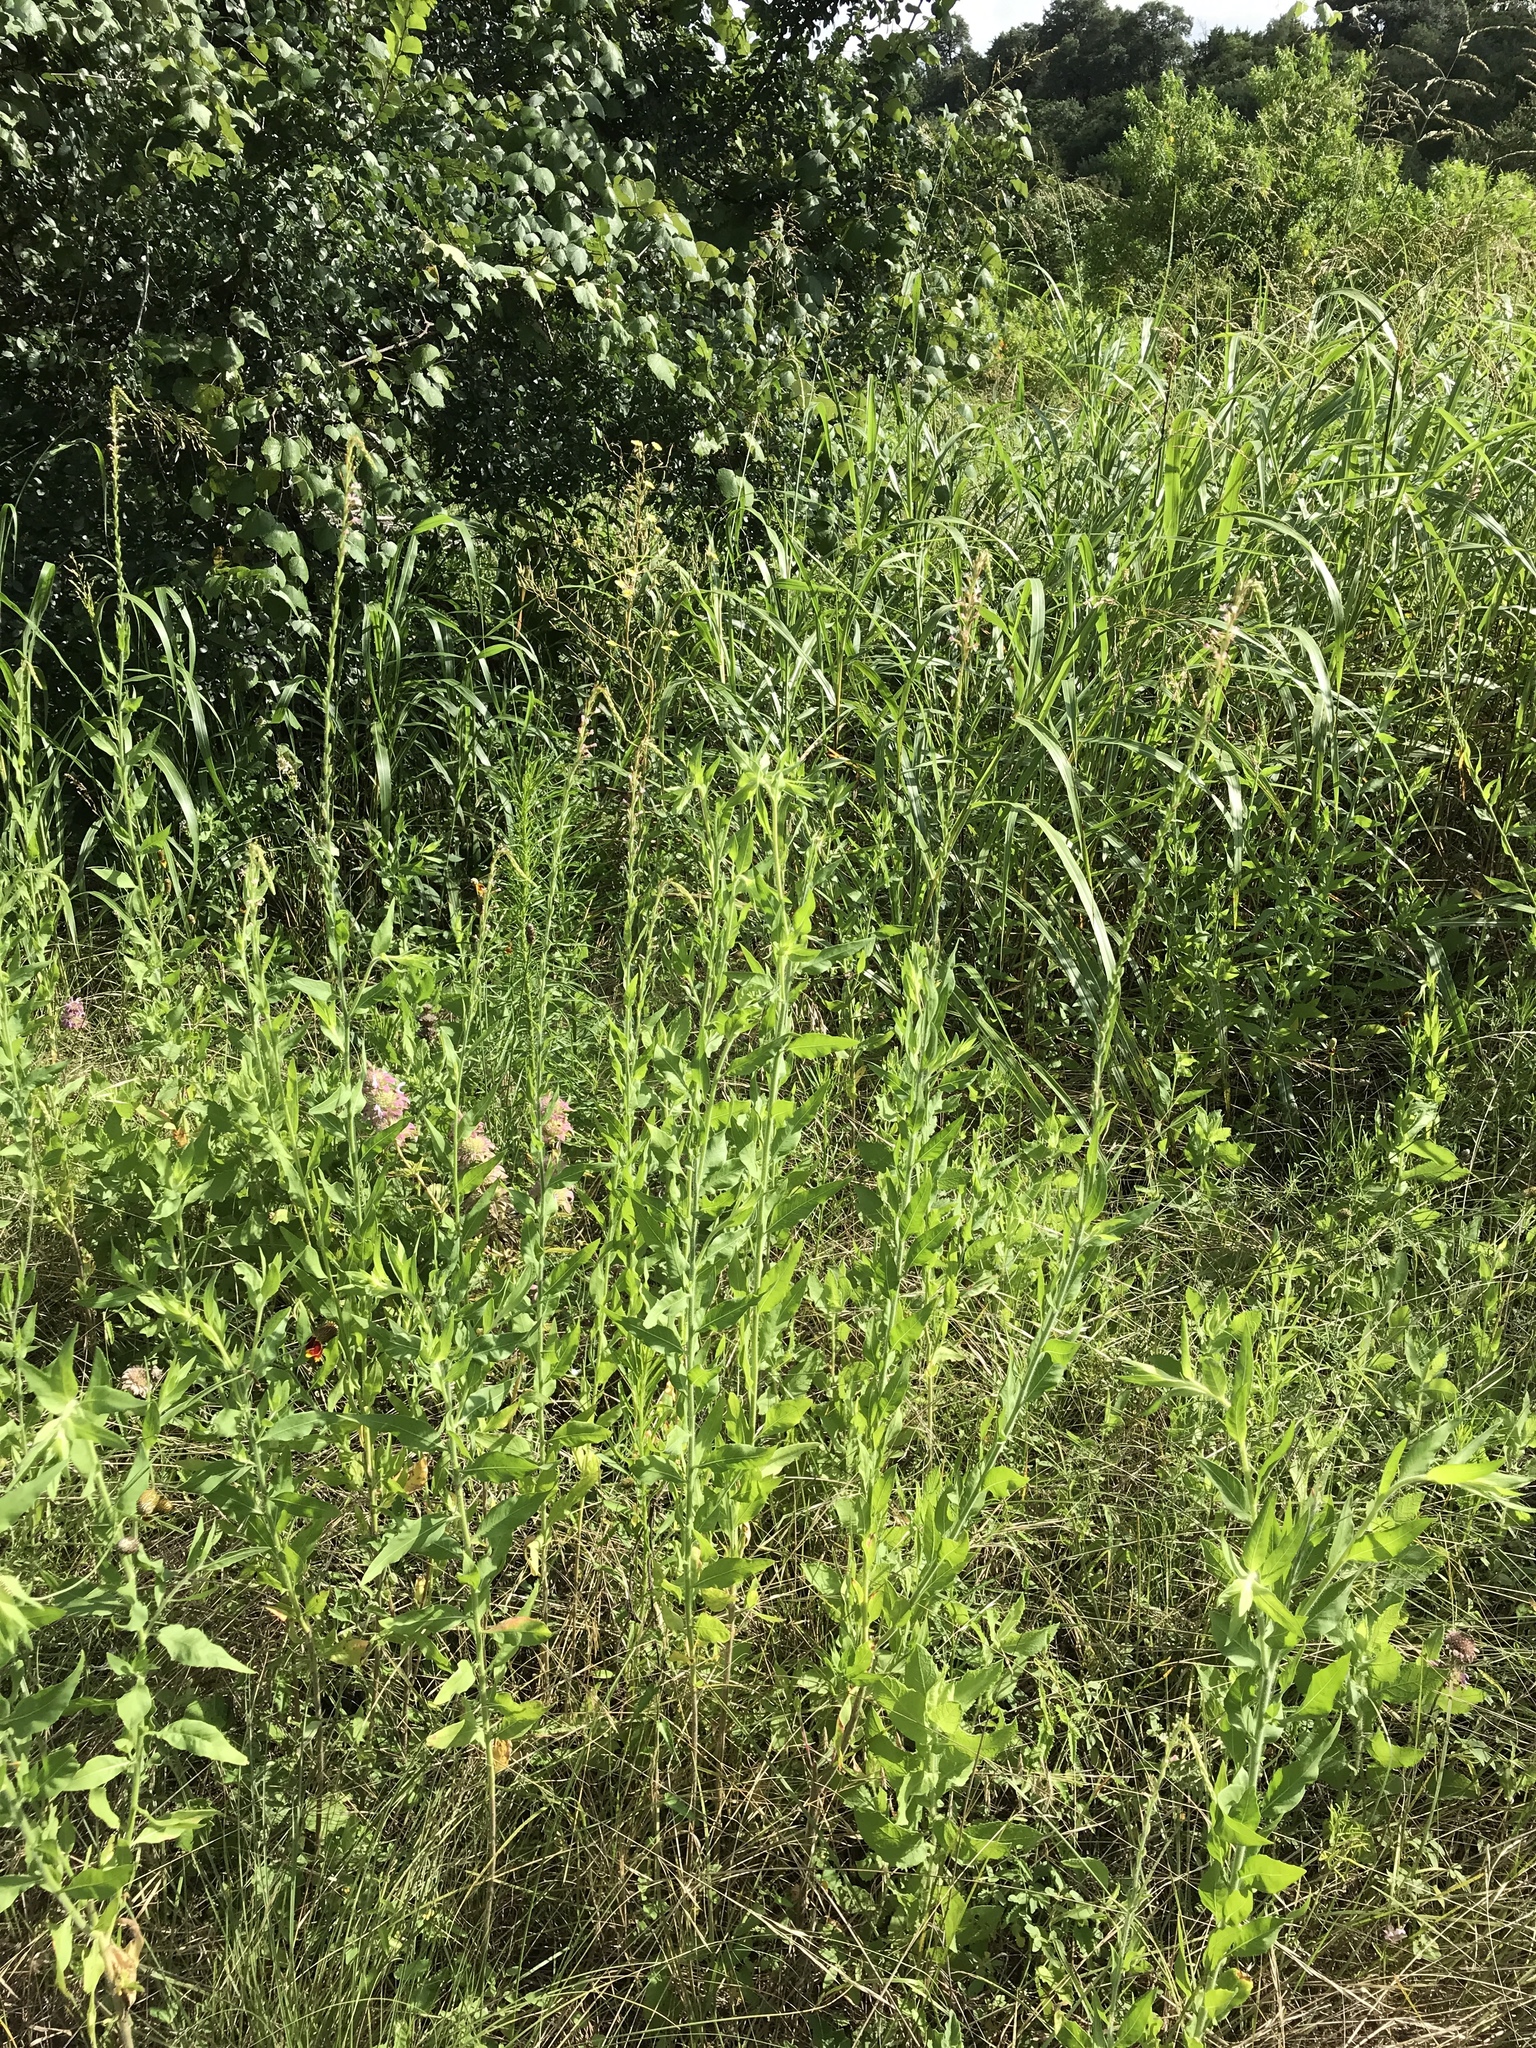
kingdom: Plantae
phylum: Tracheophyta
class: Magnoliopsida
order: Myrtales
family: Onagraceae
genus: Oenothera
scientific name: Oenothera curtiflora
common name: Velvetweed
